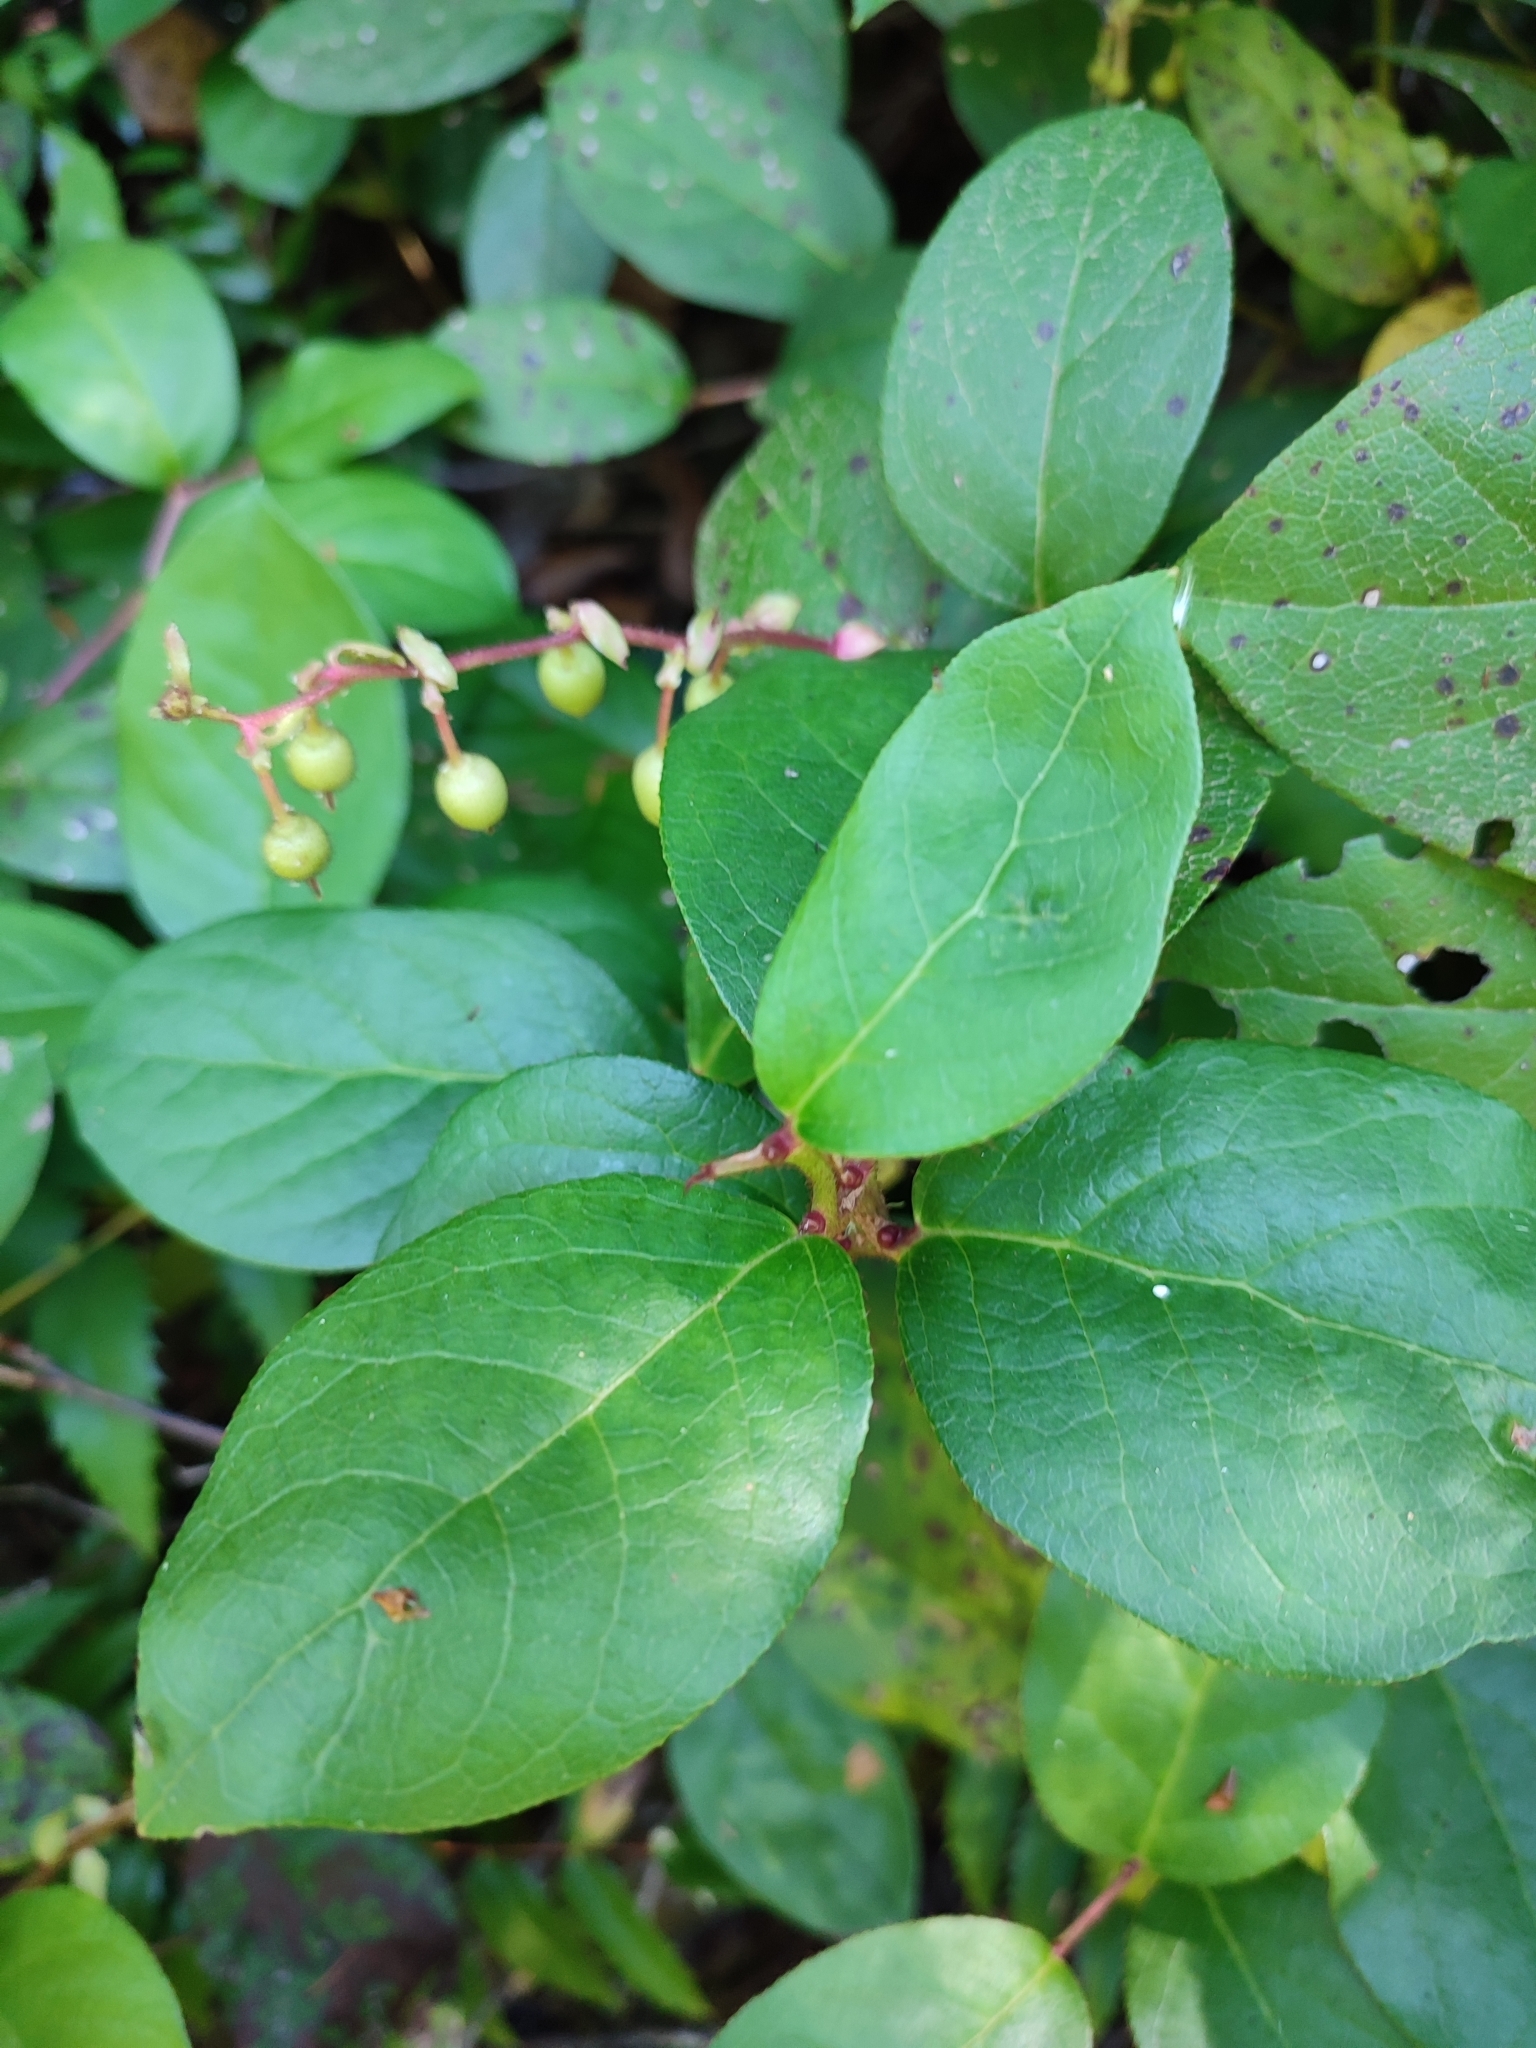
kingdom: Plantae
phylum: Tracheophyta
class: Magnoliopsida
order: Ericales
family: Ericaceae
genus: Gaultheria
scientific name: Gaultheria shallon
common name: Shallon
